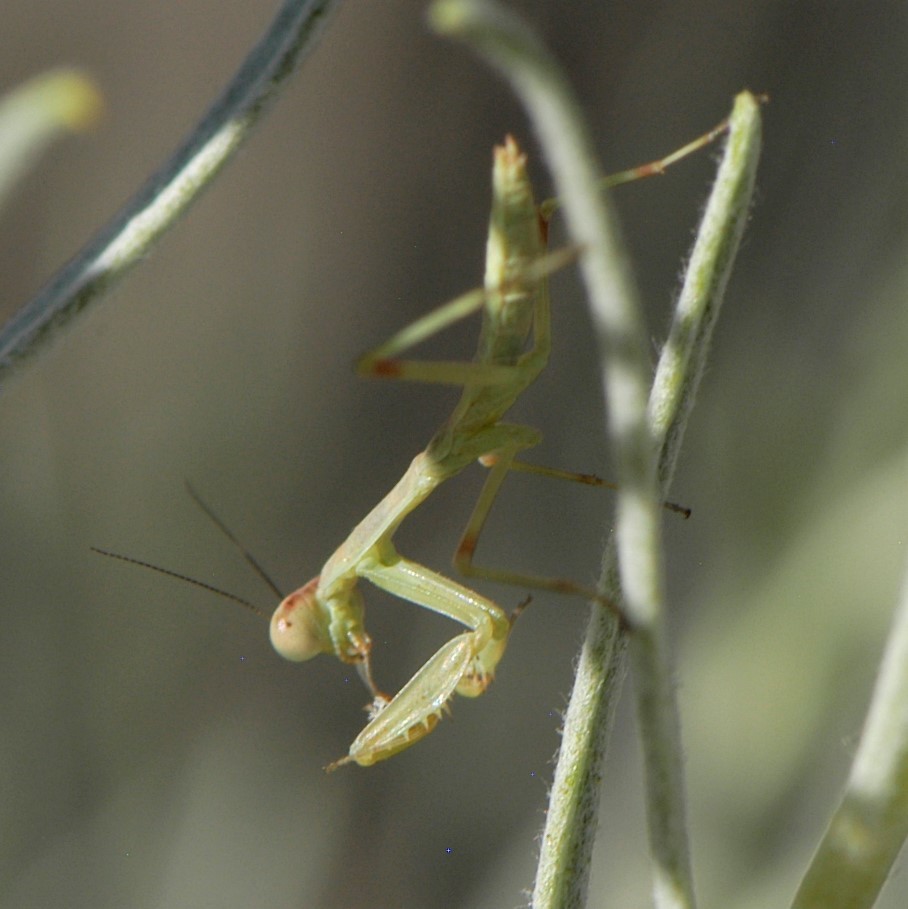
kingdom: Animalia
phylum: Arthropoda
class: Insecta
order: Mantodea
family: Mantidae
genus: Stagmomantis
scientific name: Stagmomantis
